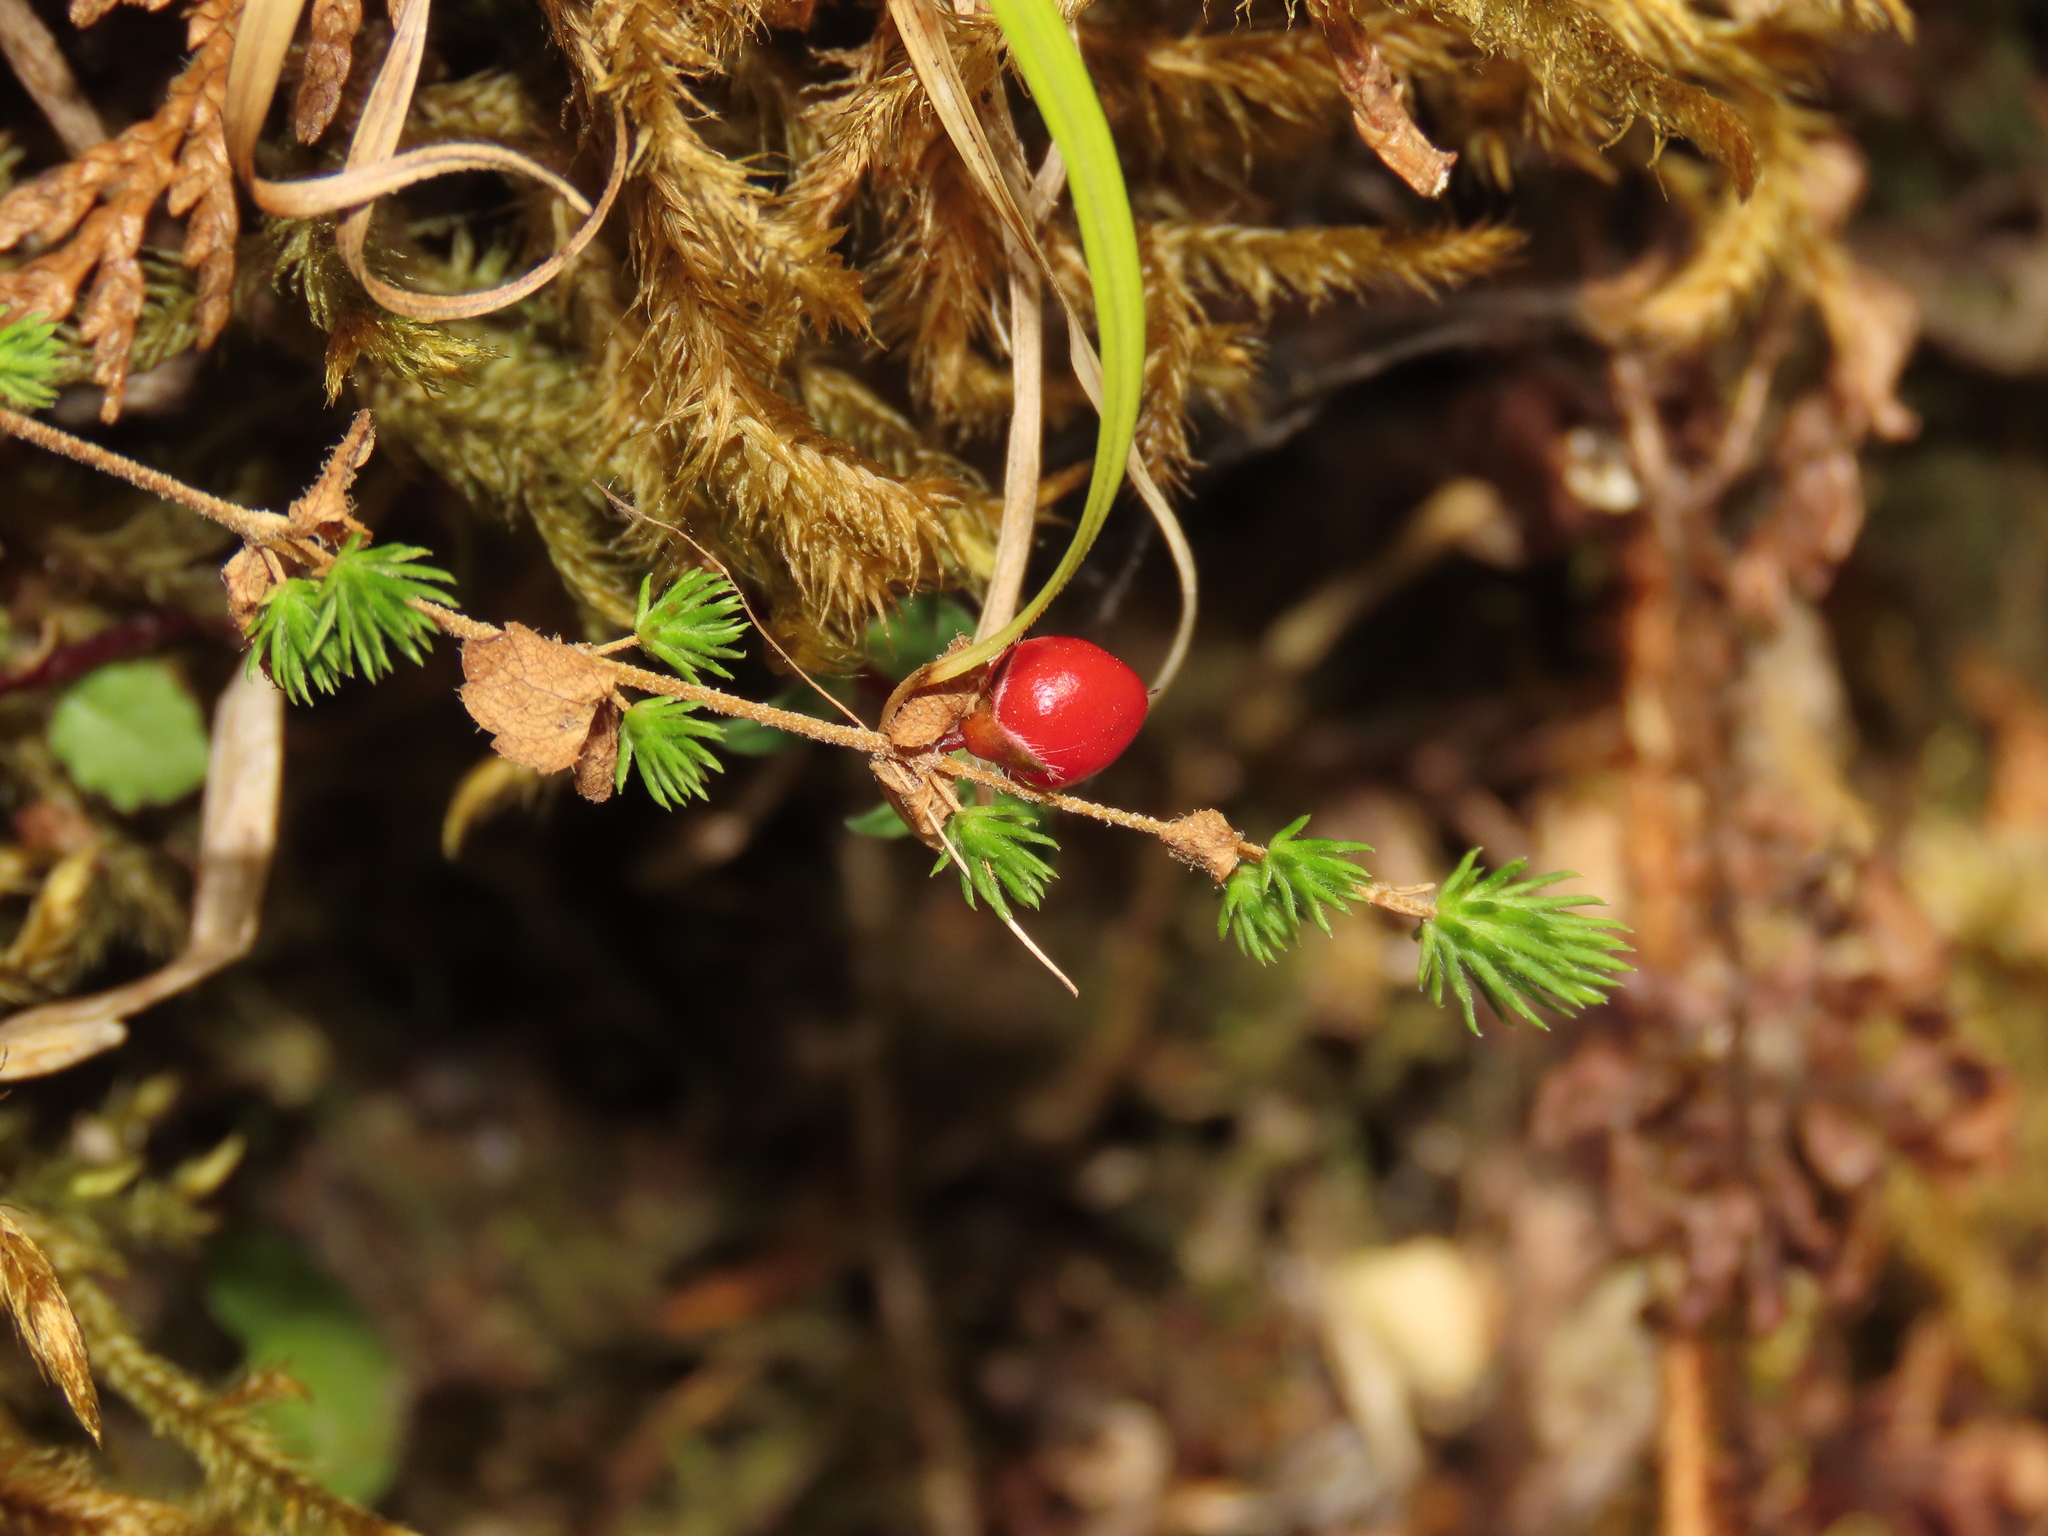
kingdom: Plantae
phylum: Tracheophyta
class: Magnoliopsida
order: Lamiales
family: Plantaginaceae
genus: Hemiphragma
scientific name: Hemiphragma heterophyllum
